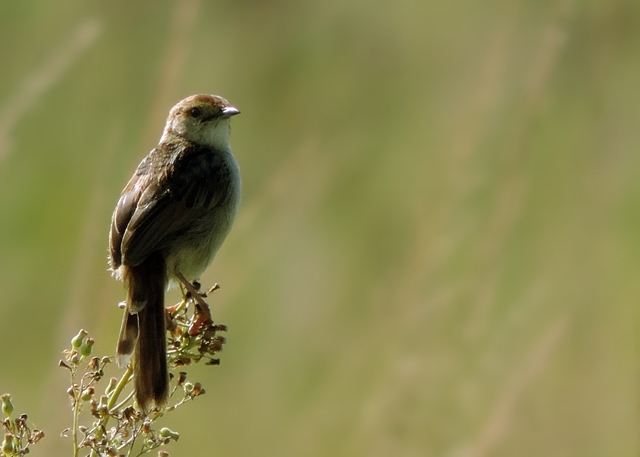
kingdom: Animalia
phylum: Chordata
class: Aves
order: Passeriformes
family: Cisticolidae
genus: Cisticola
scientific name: Cisticola tinniens
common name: Levaillant's cisticola
